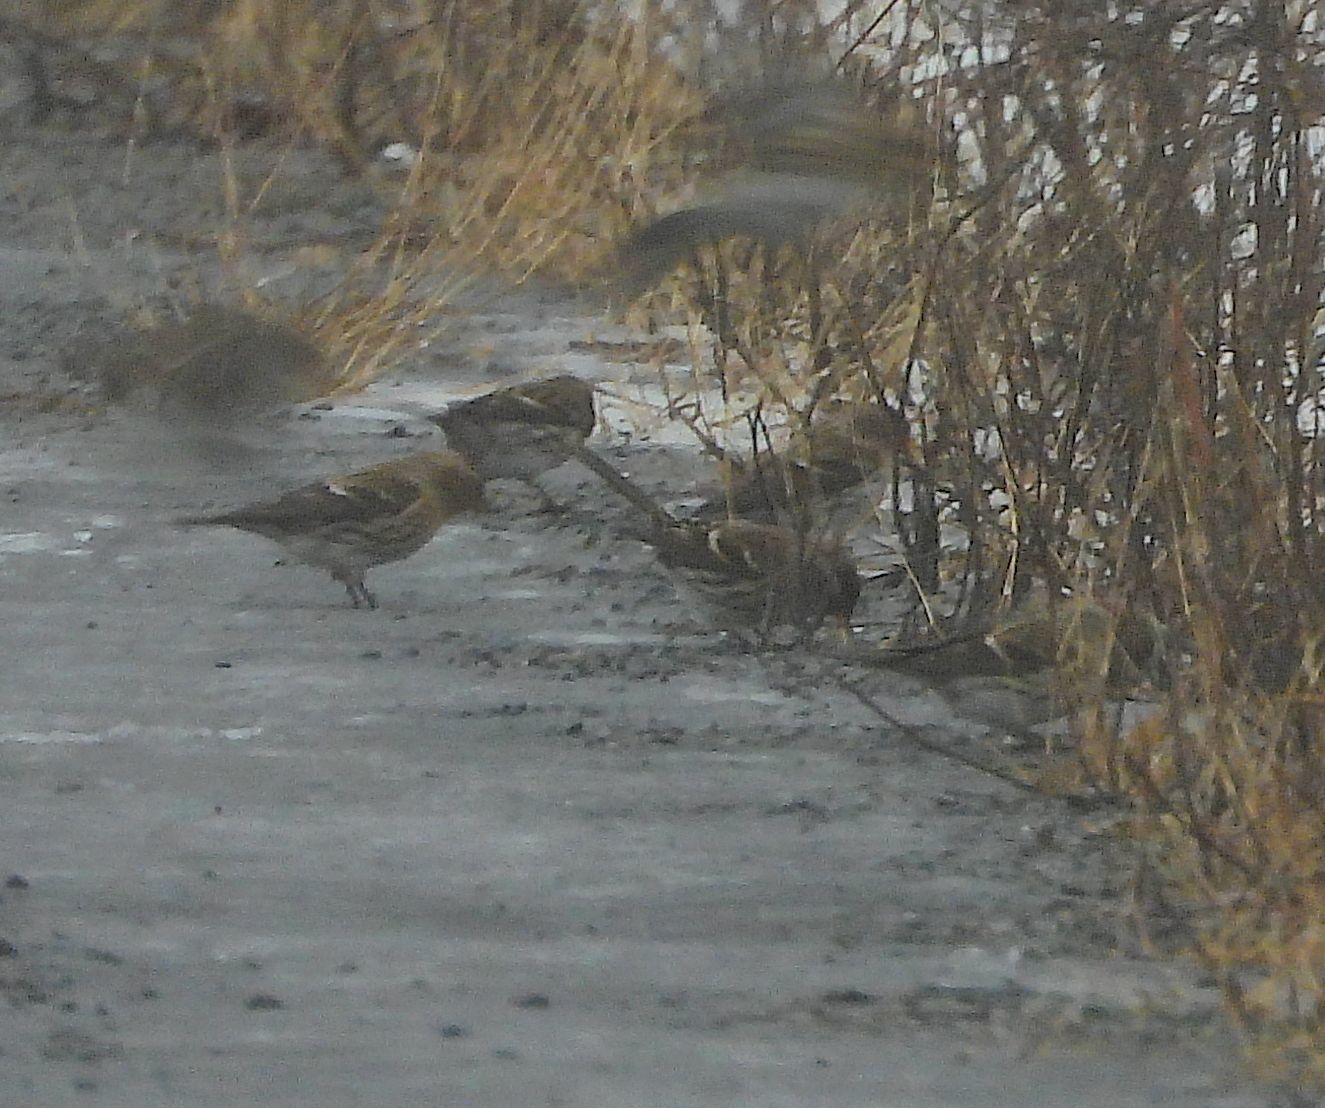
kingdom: Animalia
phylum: Chordata
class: Aves
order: Passeriformes
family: Fringillidae
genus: Acanthis
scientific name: Acanthis flammea
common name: Common redpoll
